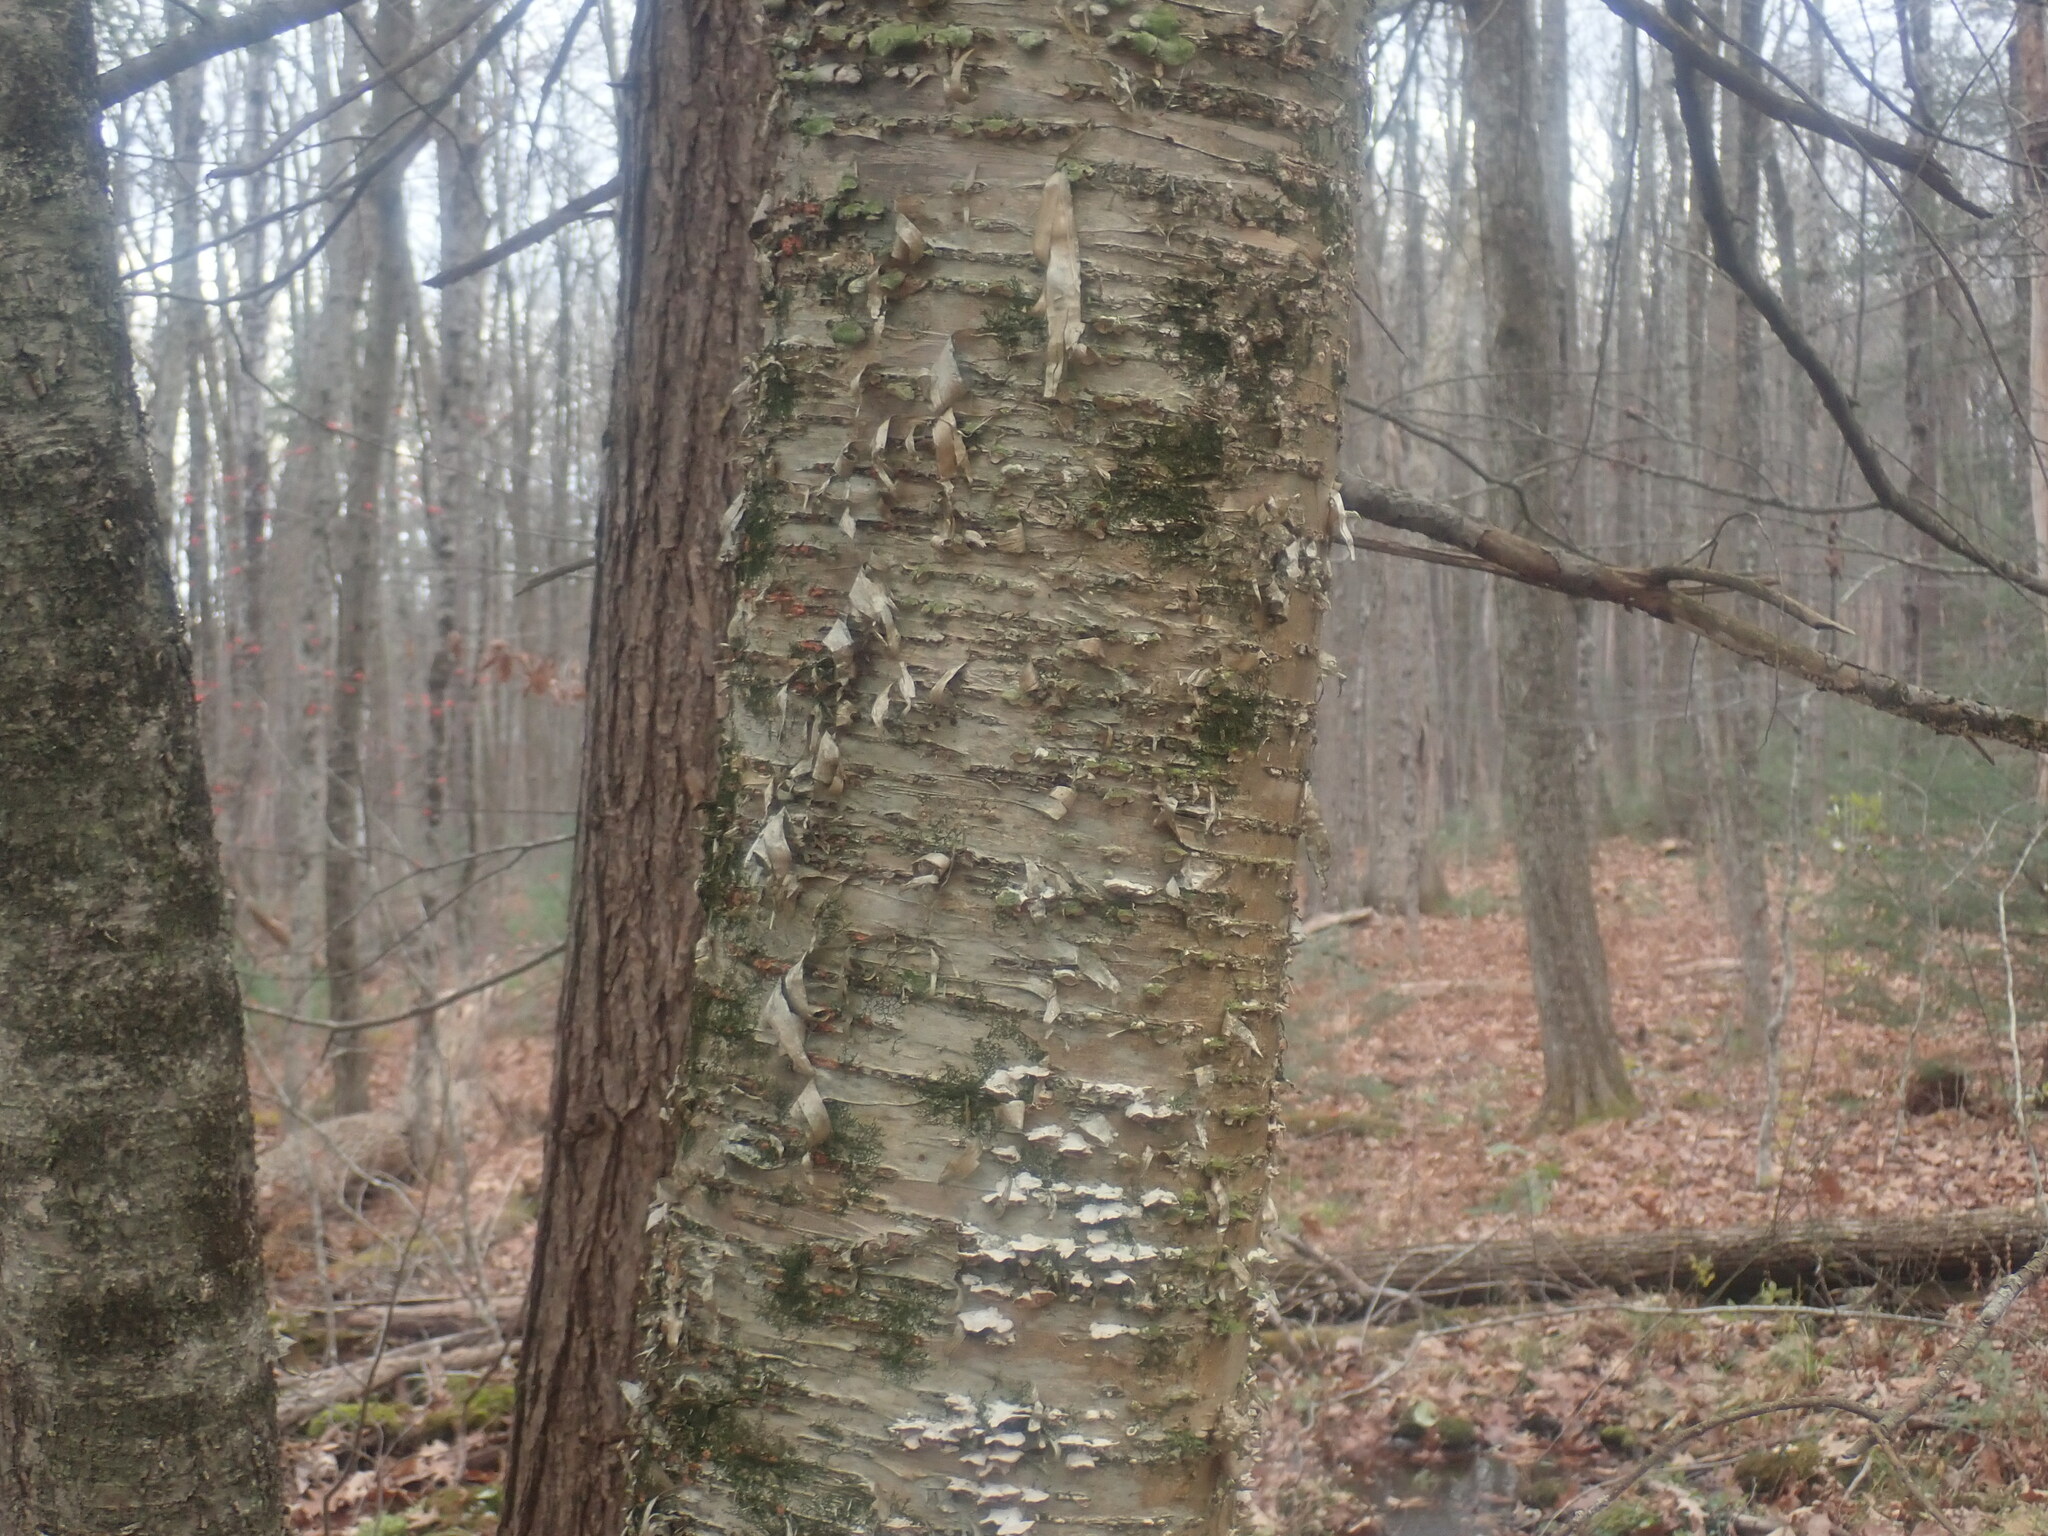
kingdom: Plantae
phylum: Tracheophyta
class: Magnoliopsida
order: Fagales
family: Betulaceae
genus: Betula
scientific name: Betula alleghaniensis
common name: Yellow birch
